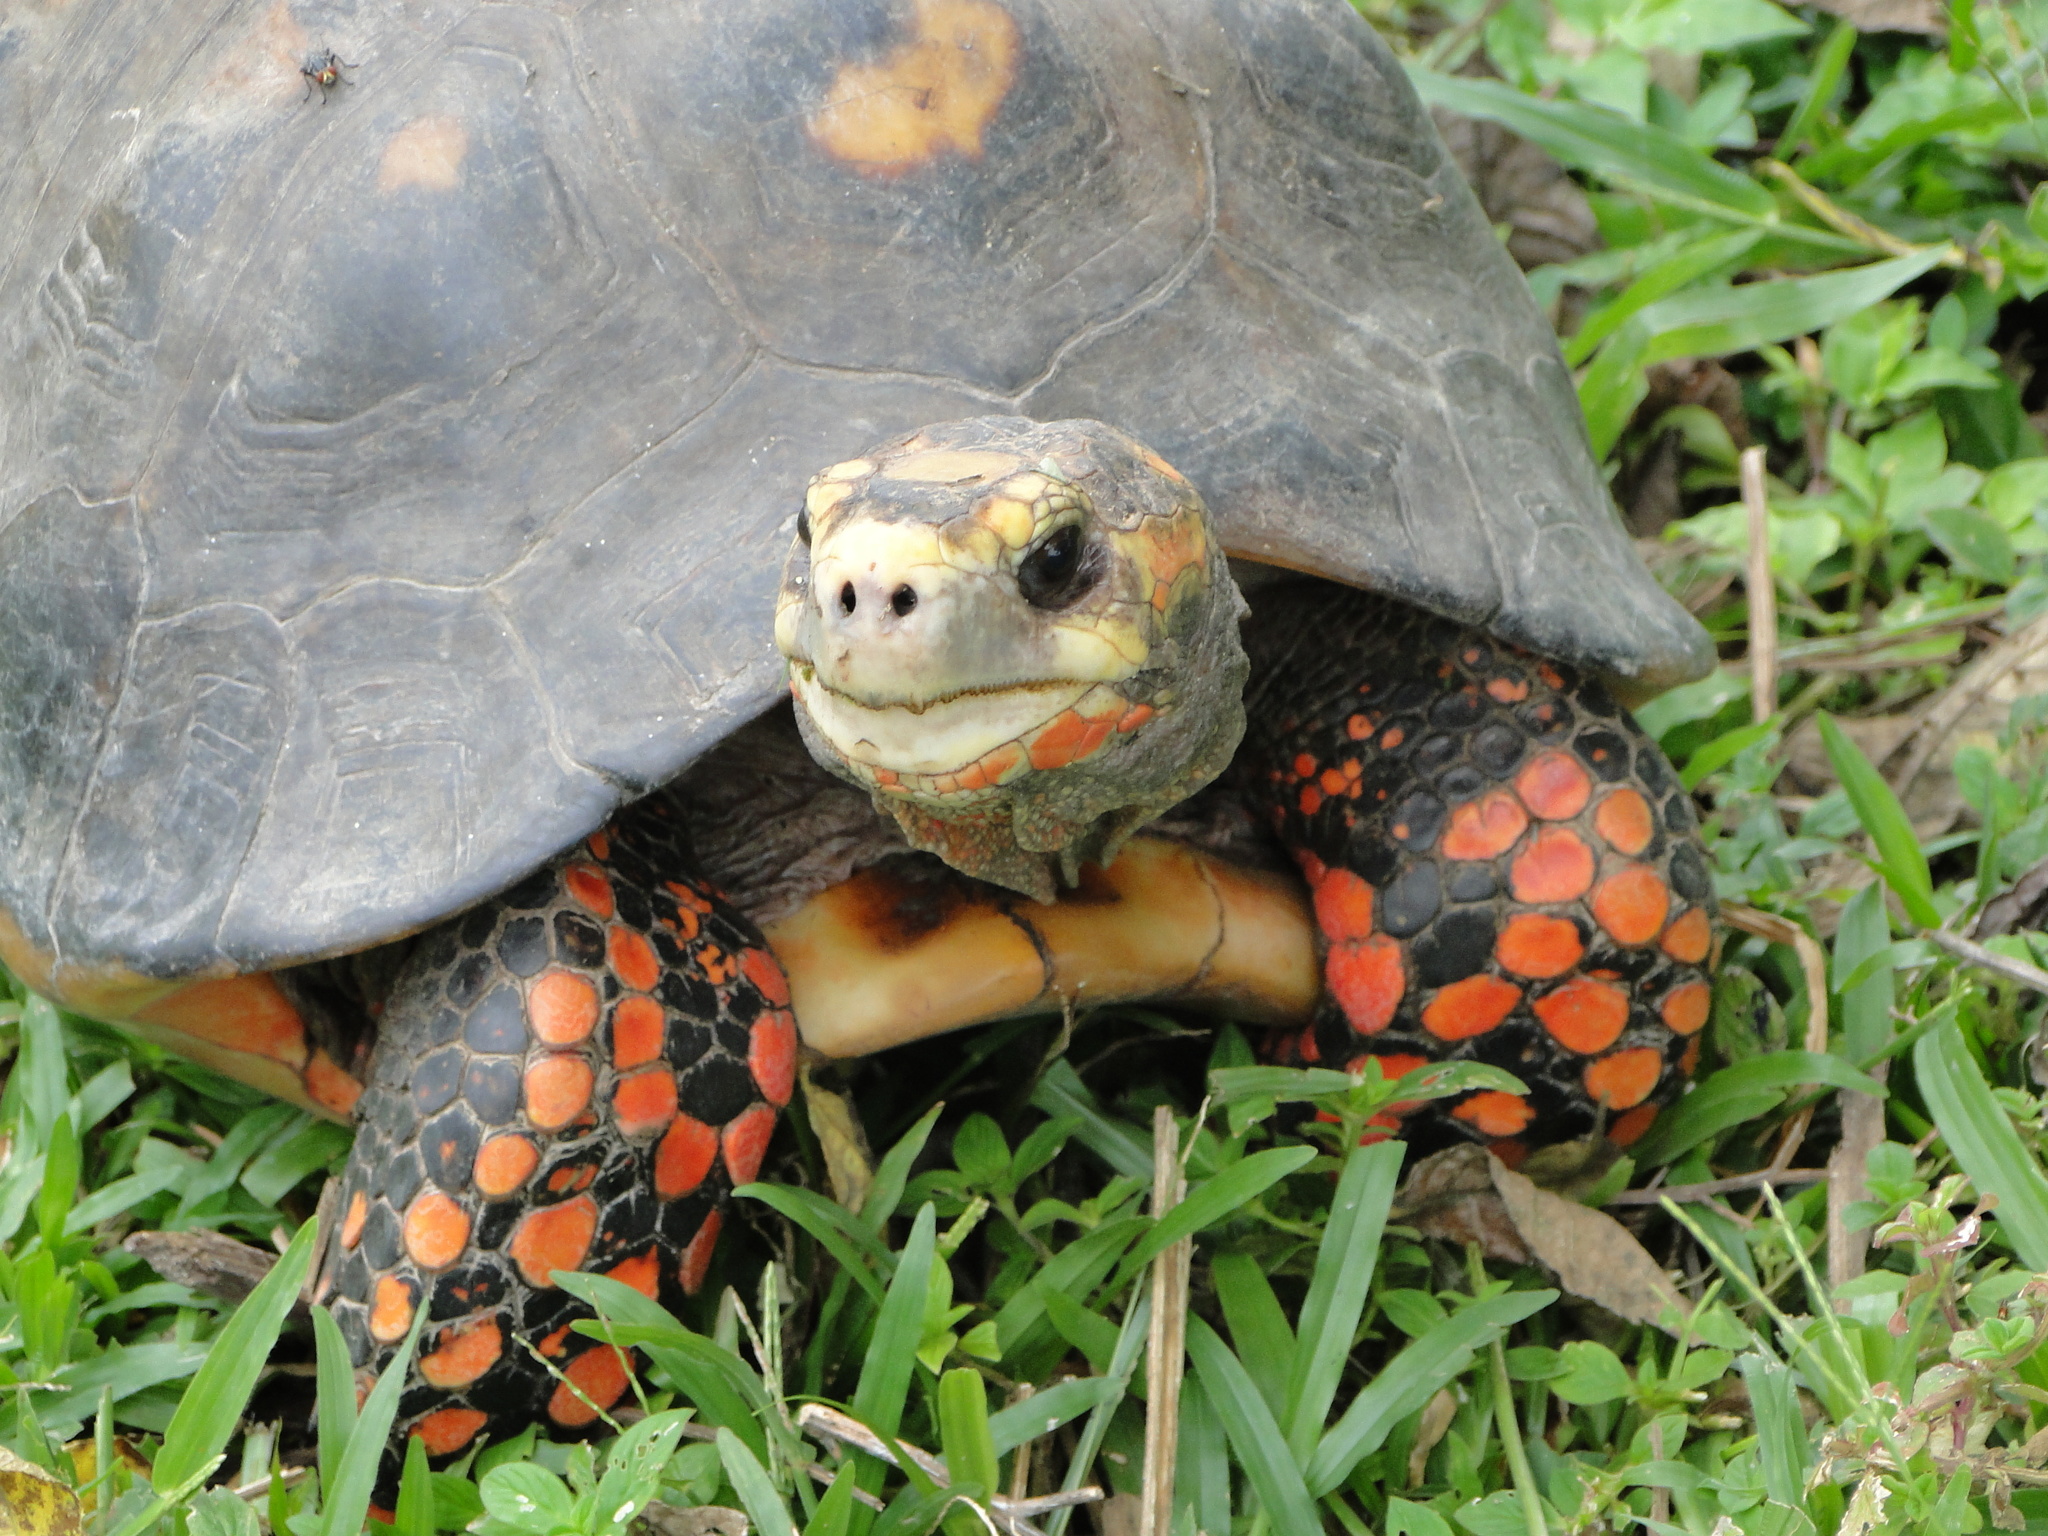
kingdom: Animalia
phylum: Chordata
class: Testudines
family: Testudinidae
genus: Chelonoidis
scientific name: Chelonoidis carbonarius
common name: Red-footed tortoise
